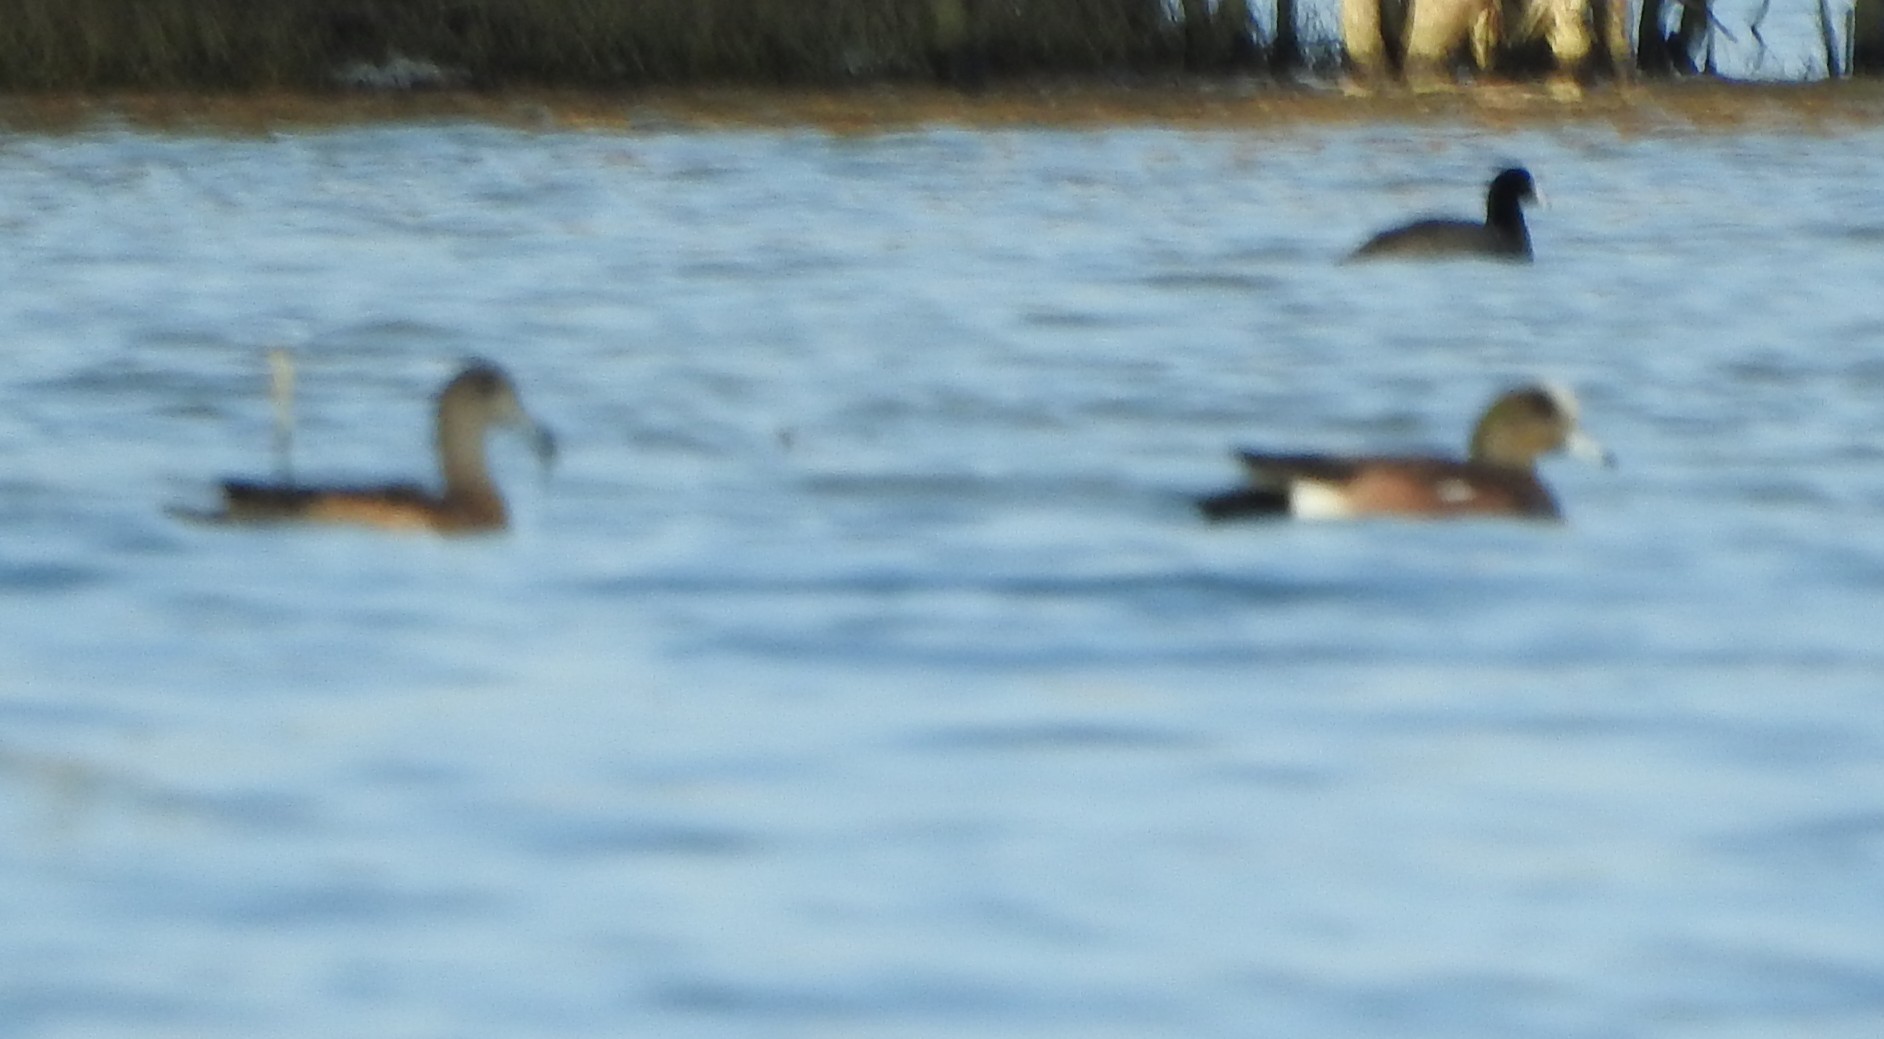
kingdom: Animalia
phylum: Chordata
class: Aves
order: Anseriformes
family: Anatidae
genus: Mareca
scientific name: Mareca americana
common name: American wigeon
